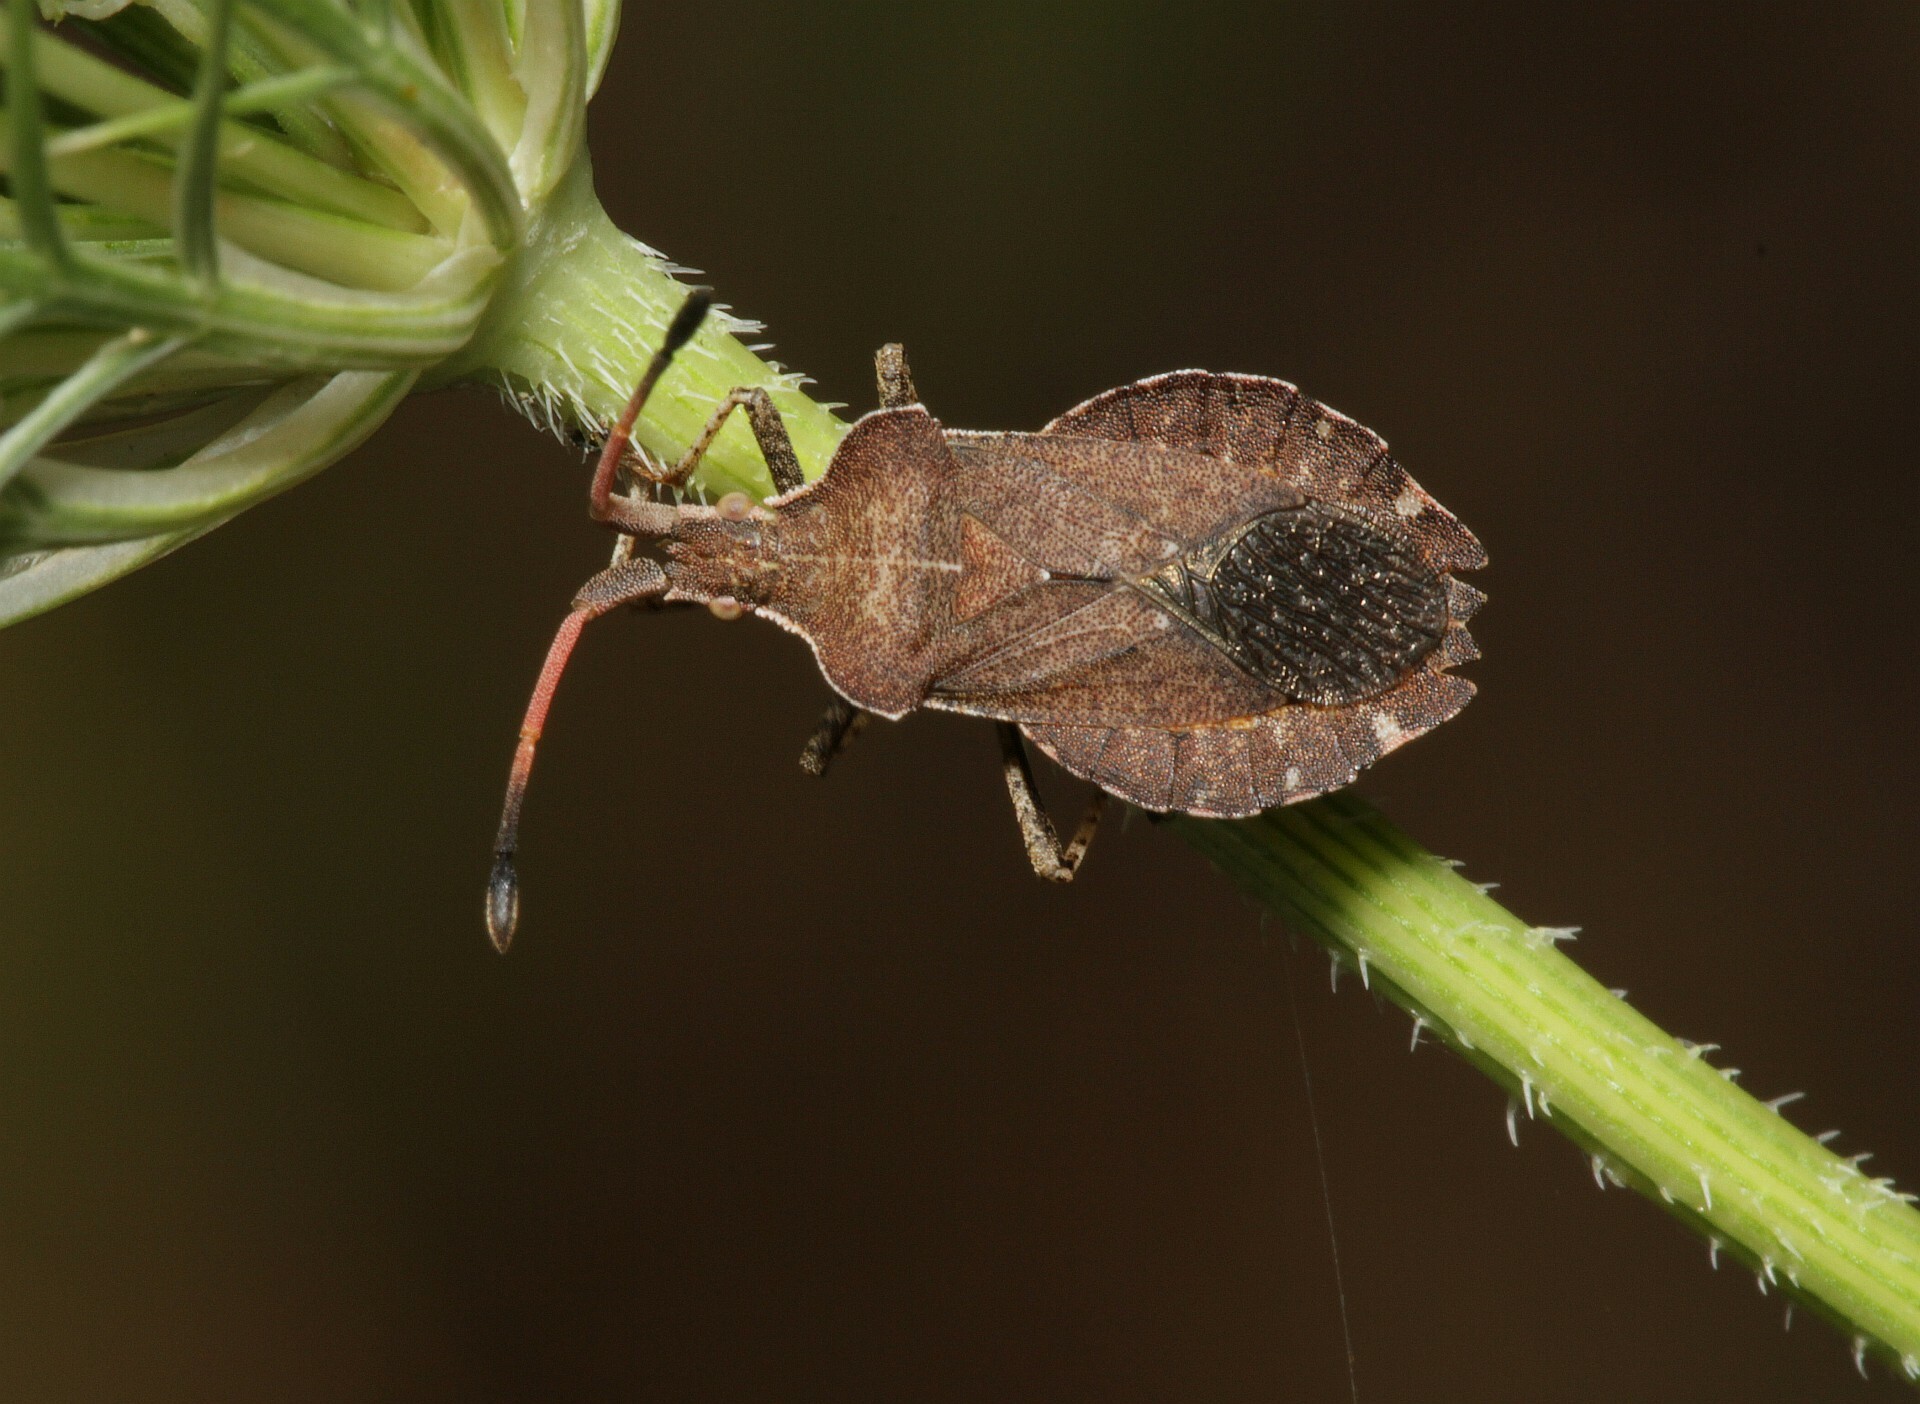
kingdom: Animalia
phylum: Arthropoda
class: Insecta
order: Hemiptera
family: Coreidae
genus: Enoplops
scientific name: Enoplops scapha
